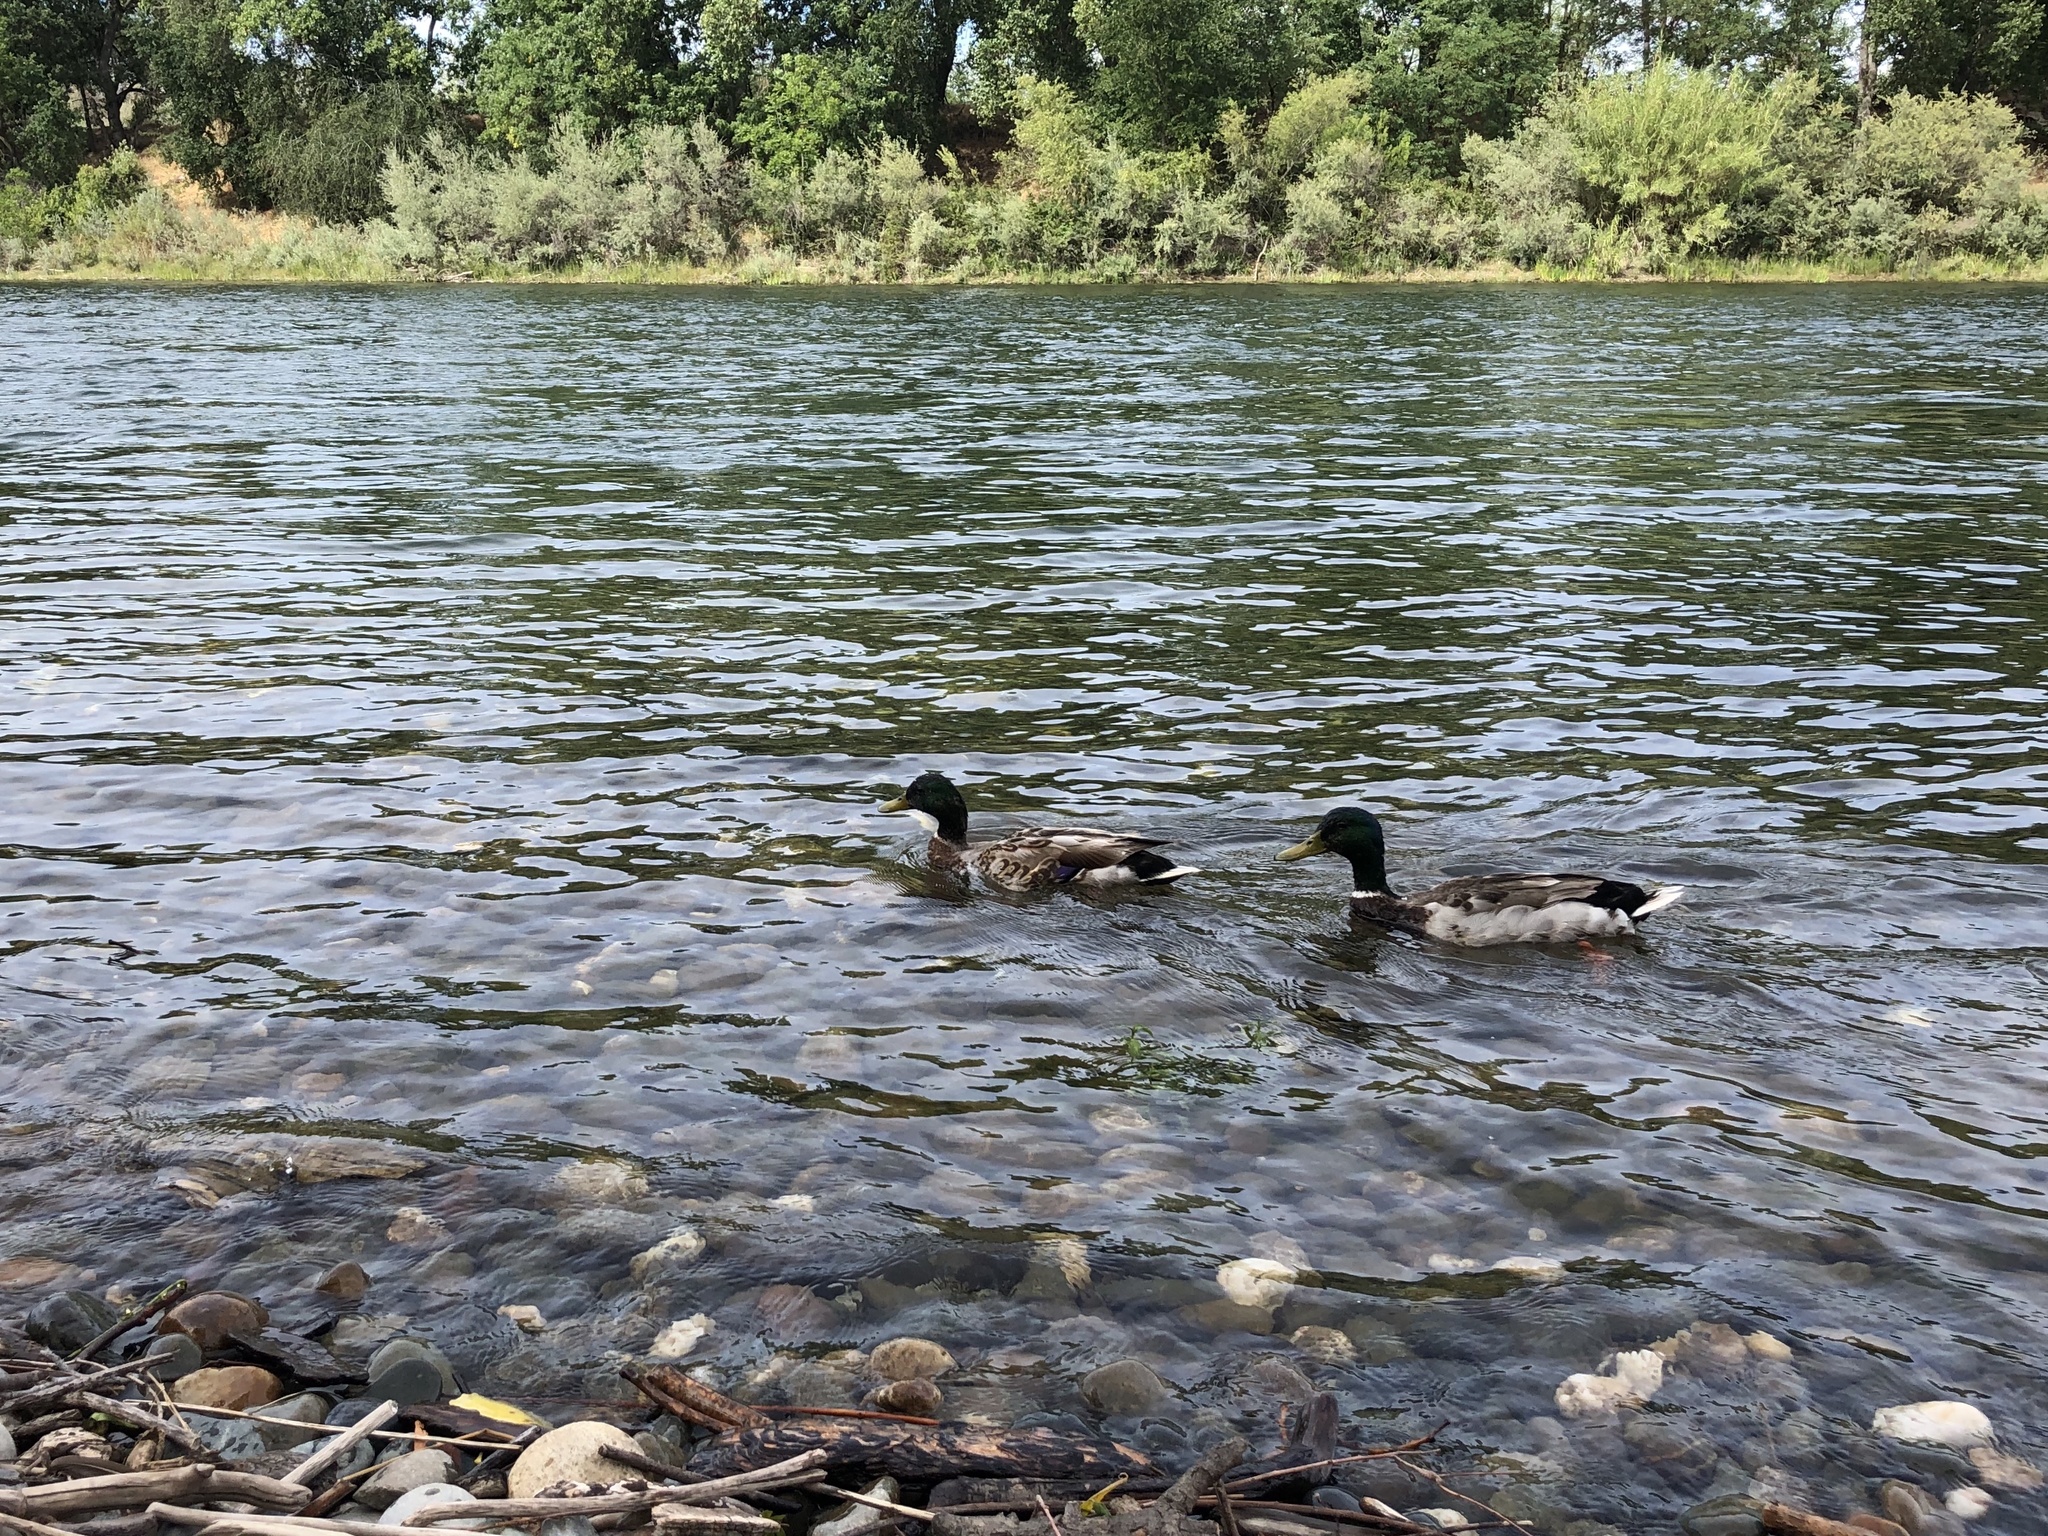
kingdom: Animalia
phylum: Chordata
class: Aves
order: Anseriformes
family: Anatidae
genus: Anas
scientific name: Anas platyrhynchos
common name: Mallard
